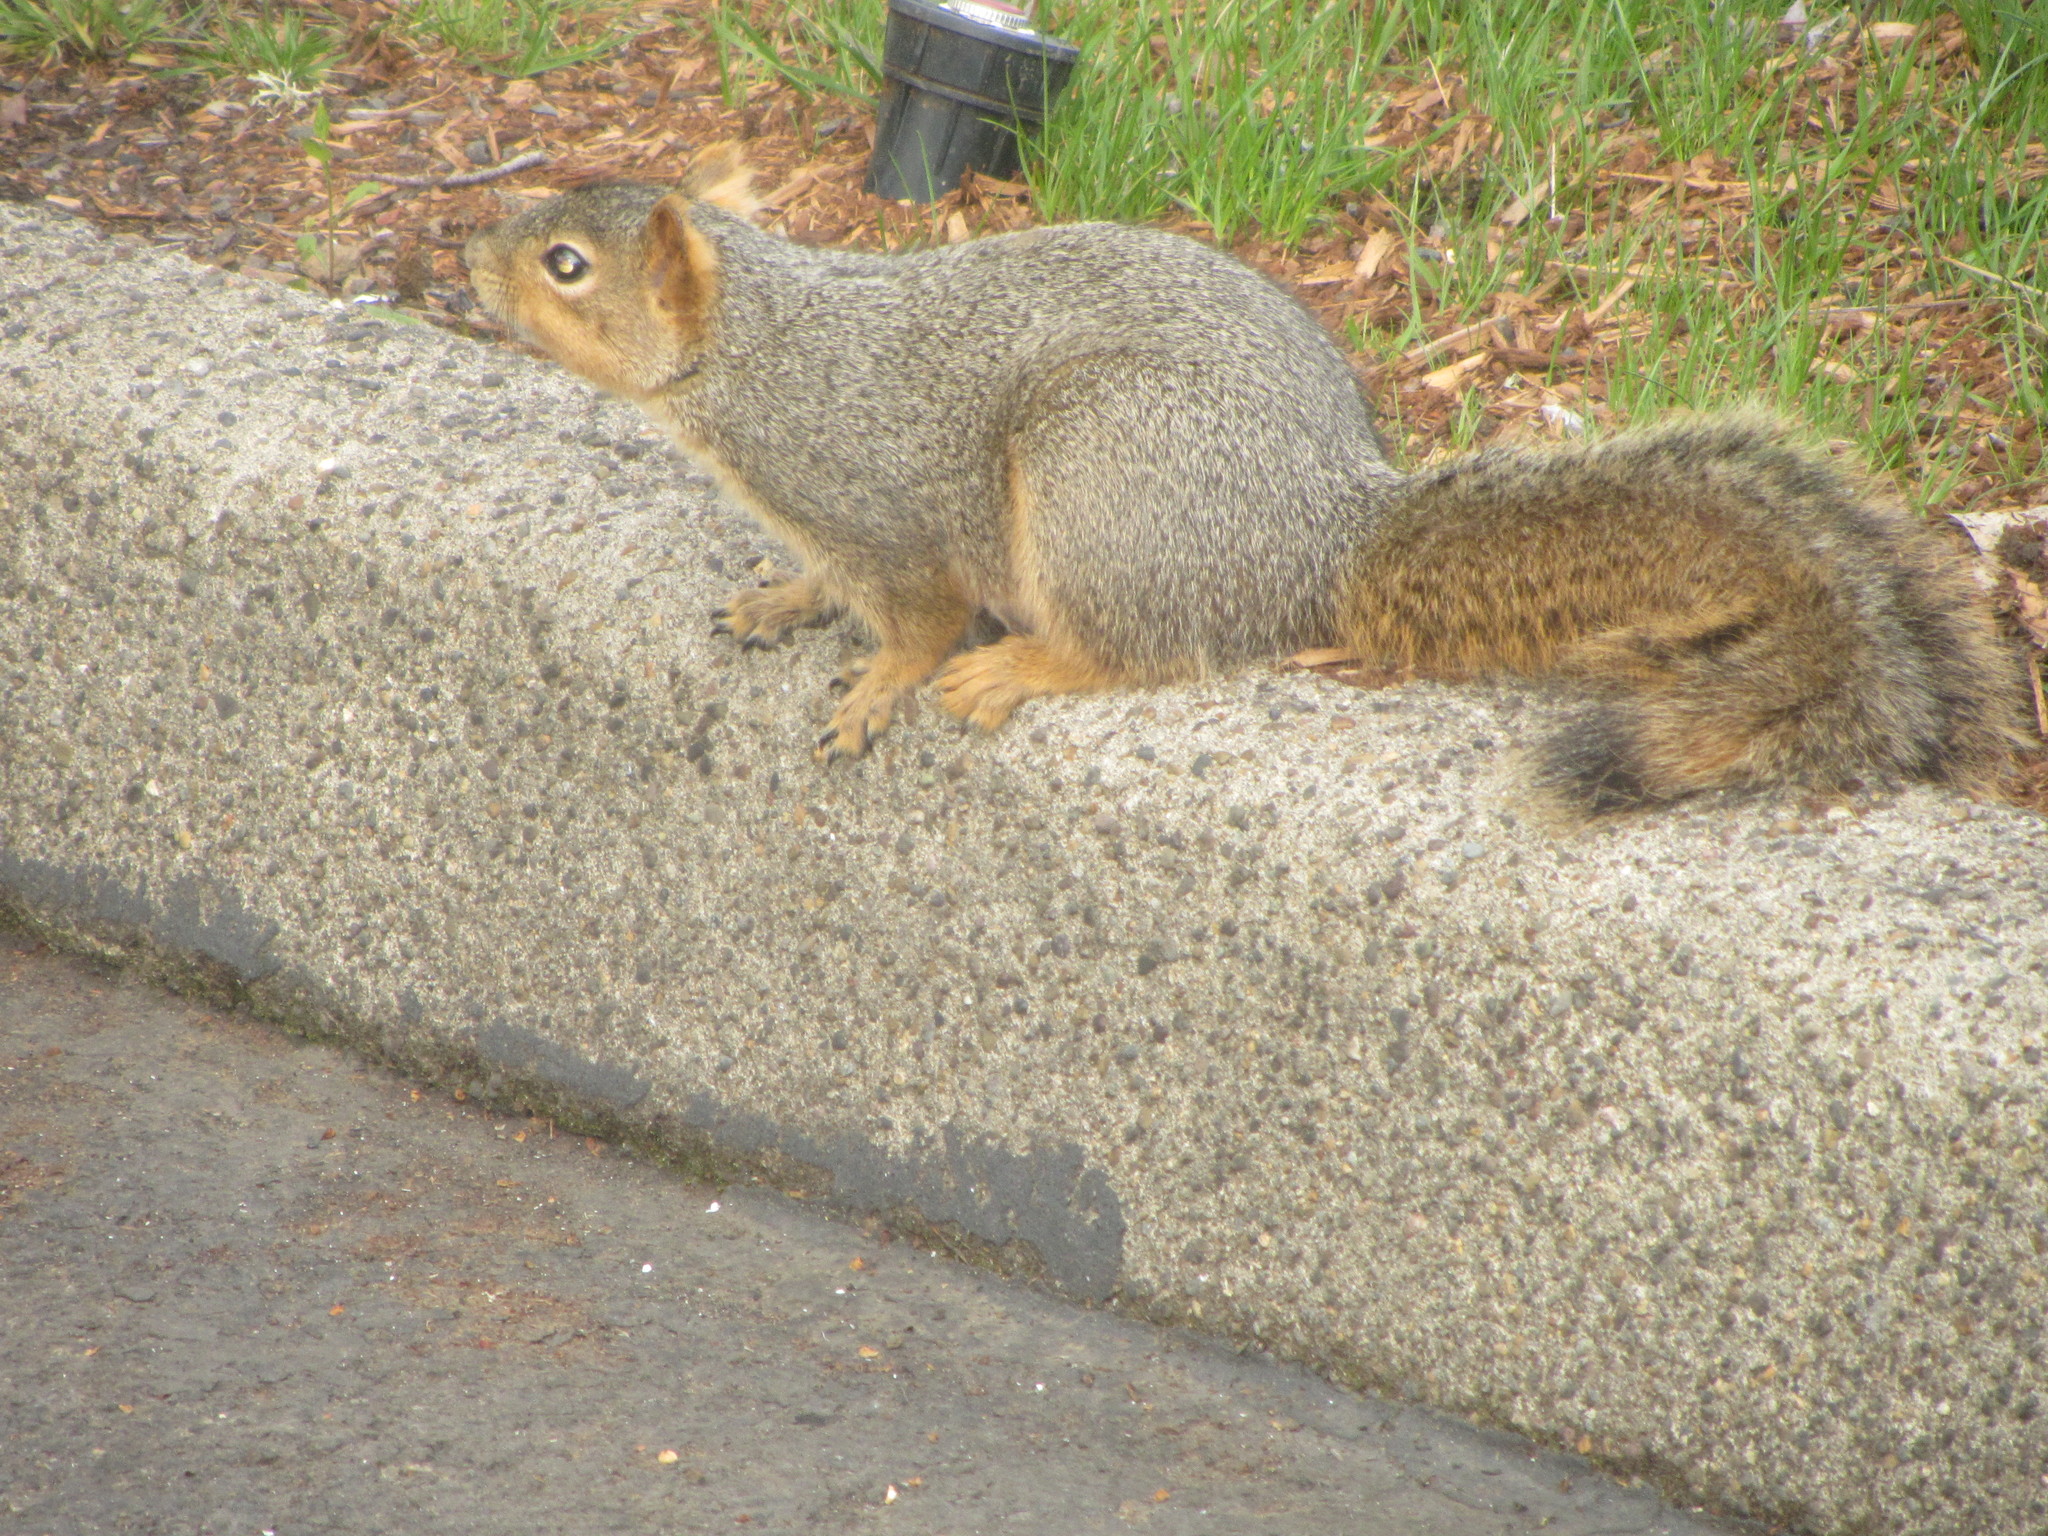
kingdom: Animalia
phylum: Chordata
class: Mammalia
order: Rodentia
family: Sciuridae
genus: Sciurus
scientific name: Sciurus niger
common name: Fox squirrel
